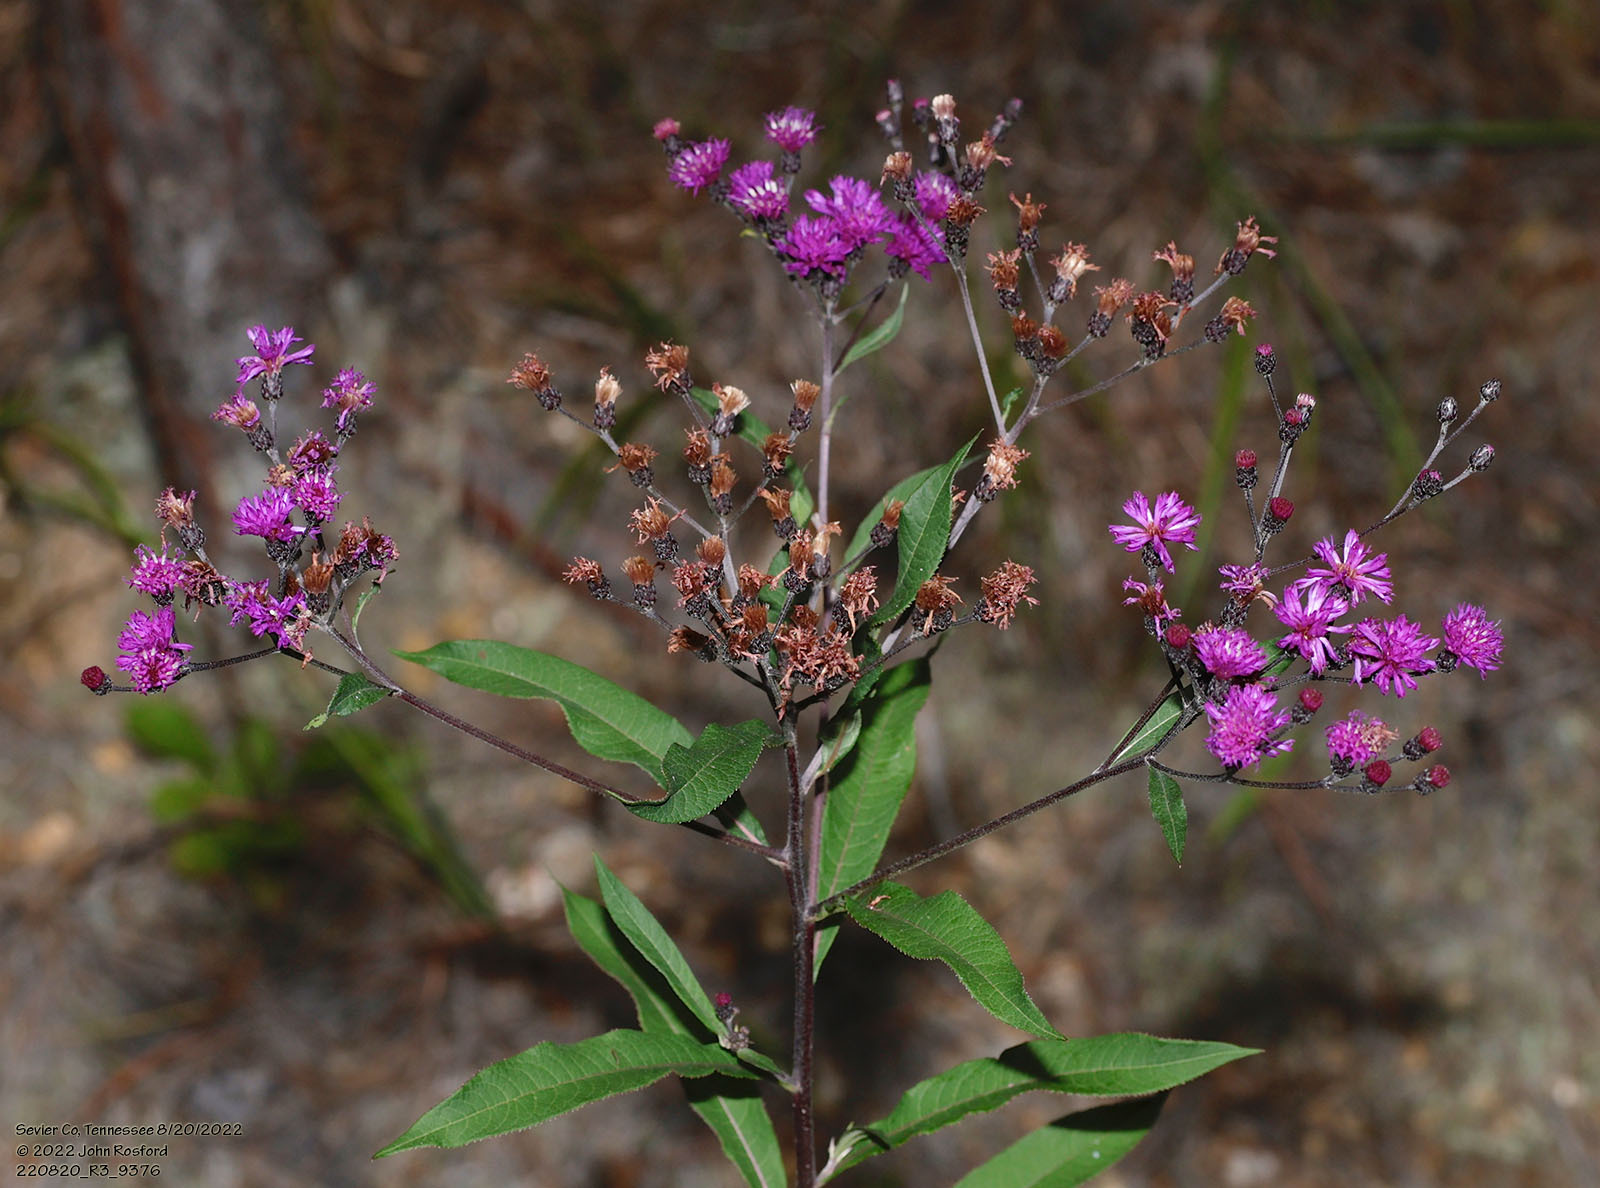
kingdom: Plantae
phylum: Tracheophyta
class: Magnoliopsida
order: Asterales
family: Asteraceae
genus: Vernonia
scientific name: Vernonia gigantea
